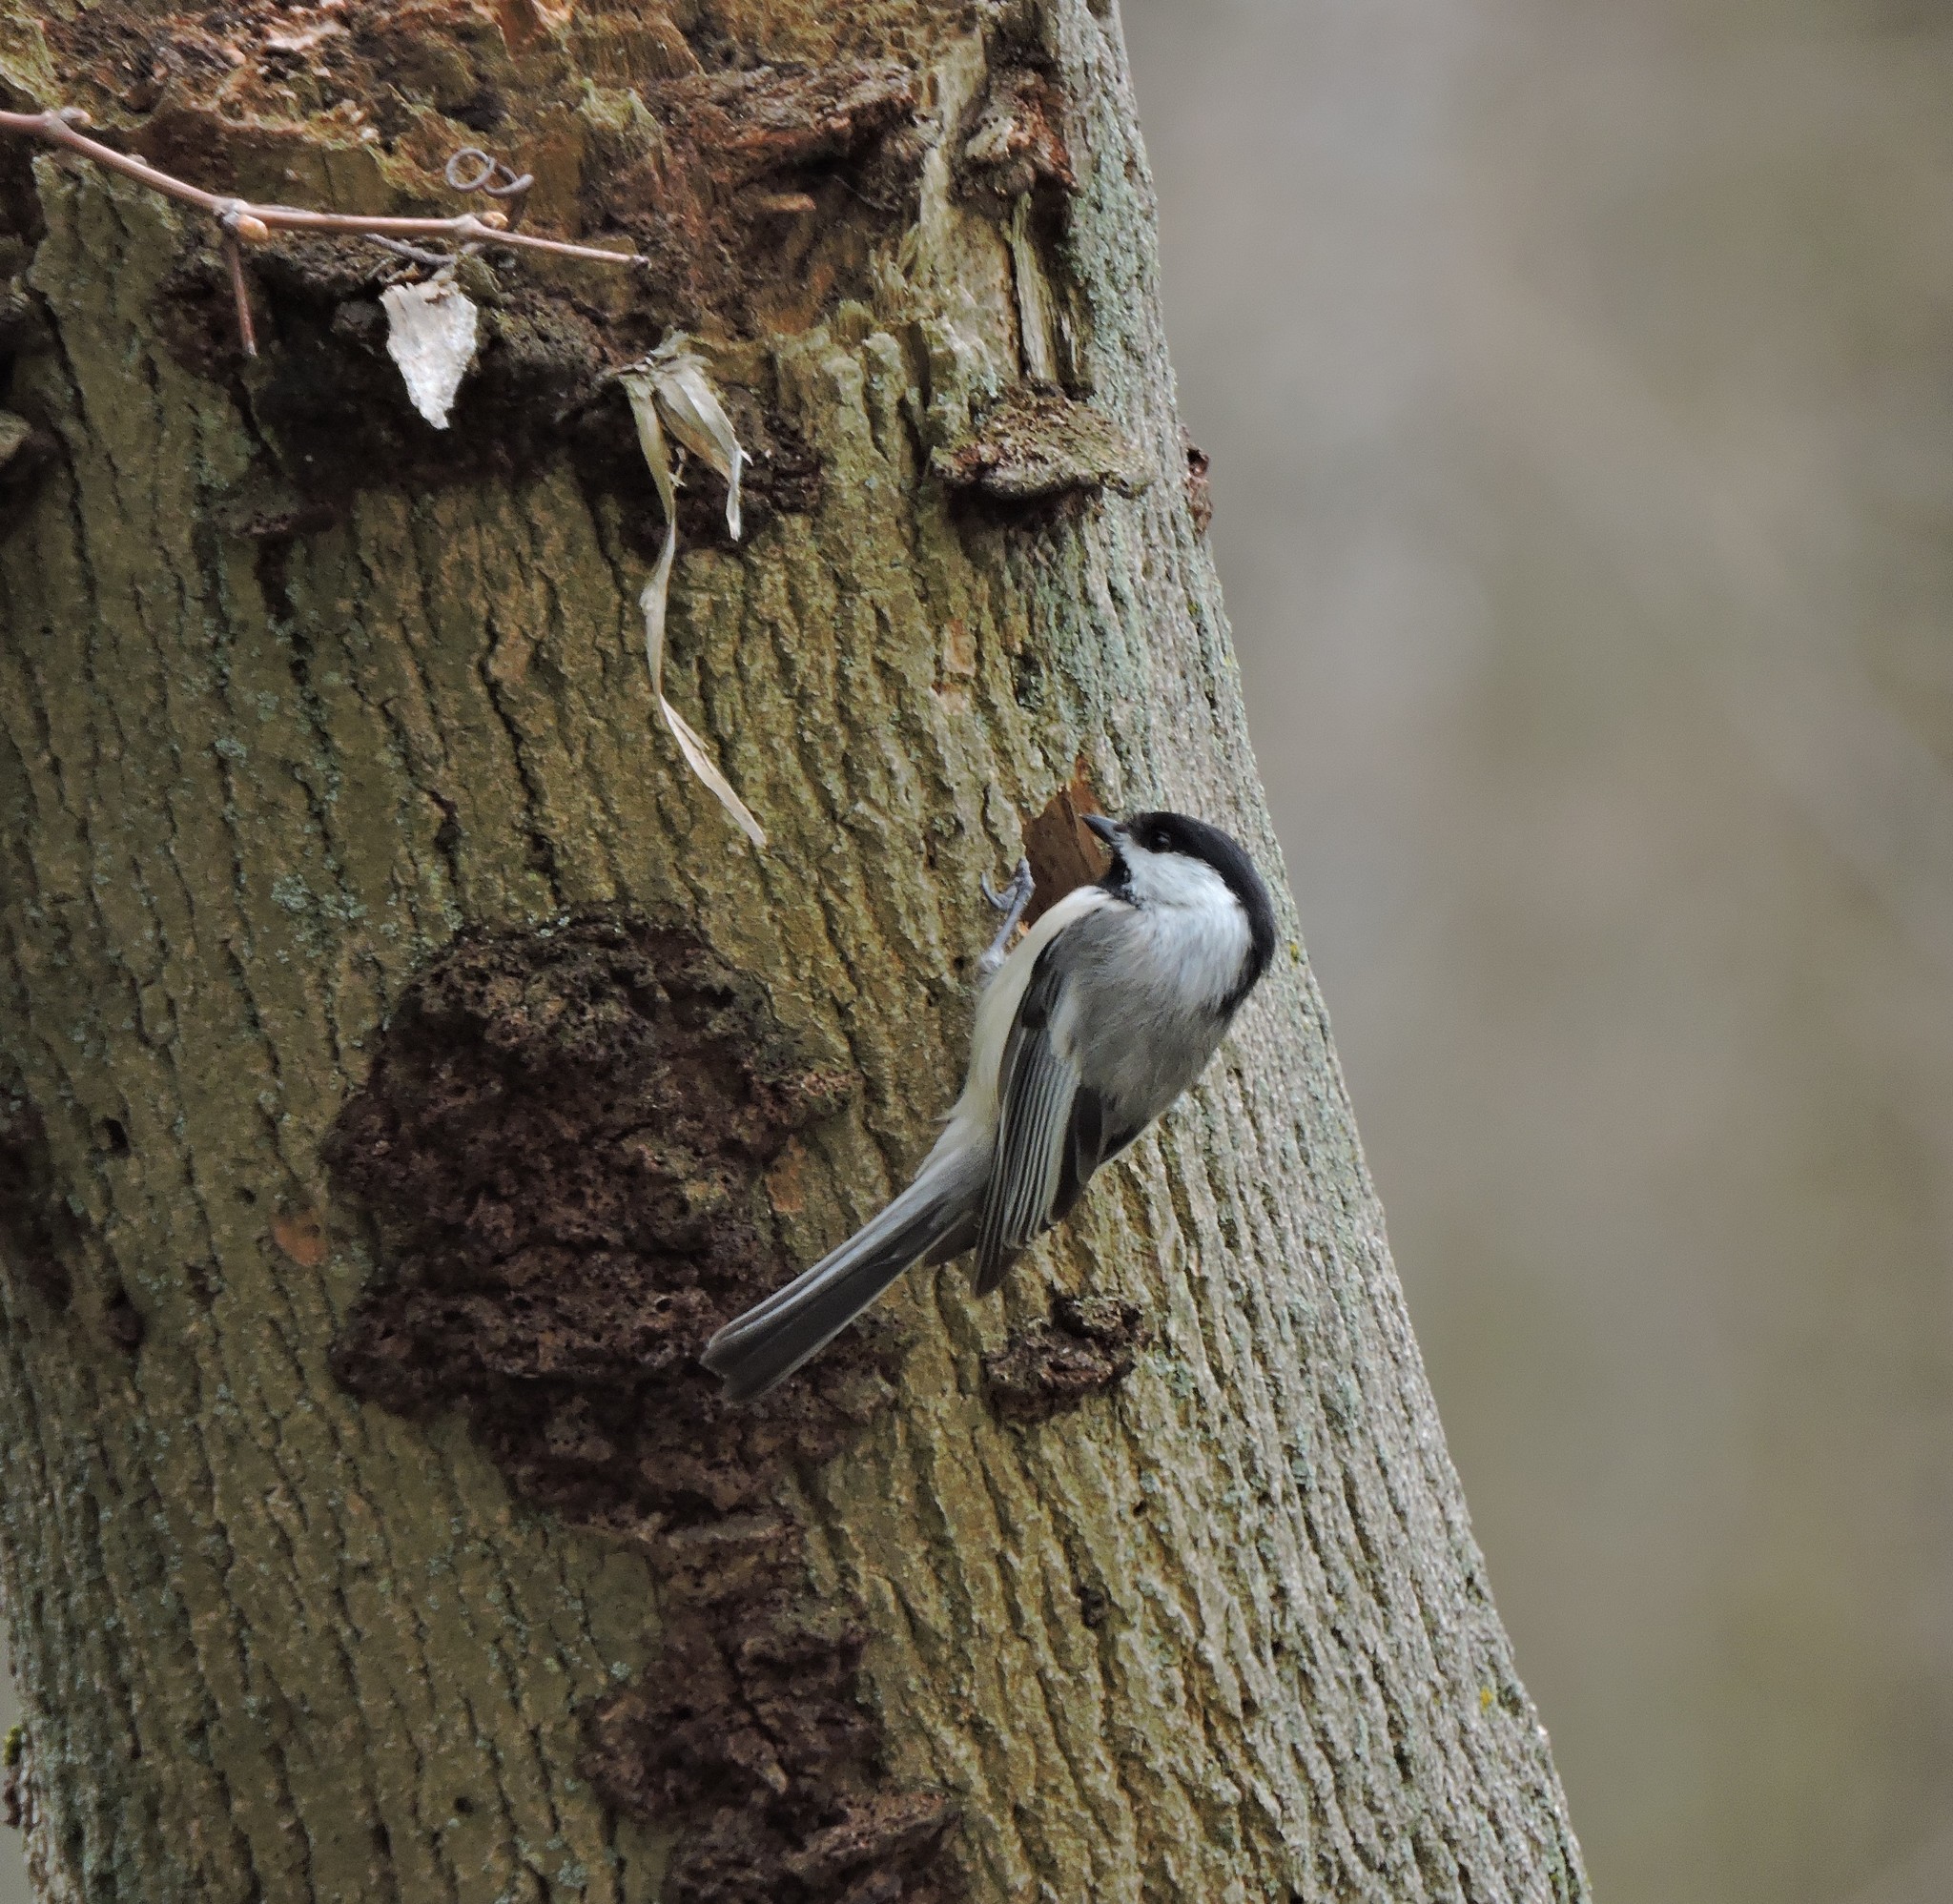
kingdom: Animalia
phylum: Chordata
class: Aves
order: Passeriformes
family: Paridae
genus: Poecile
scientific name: Poecile atricapillus
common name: Black-capped chickadee
